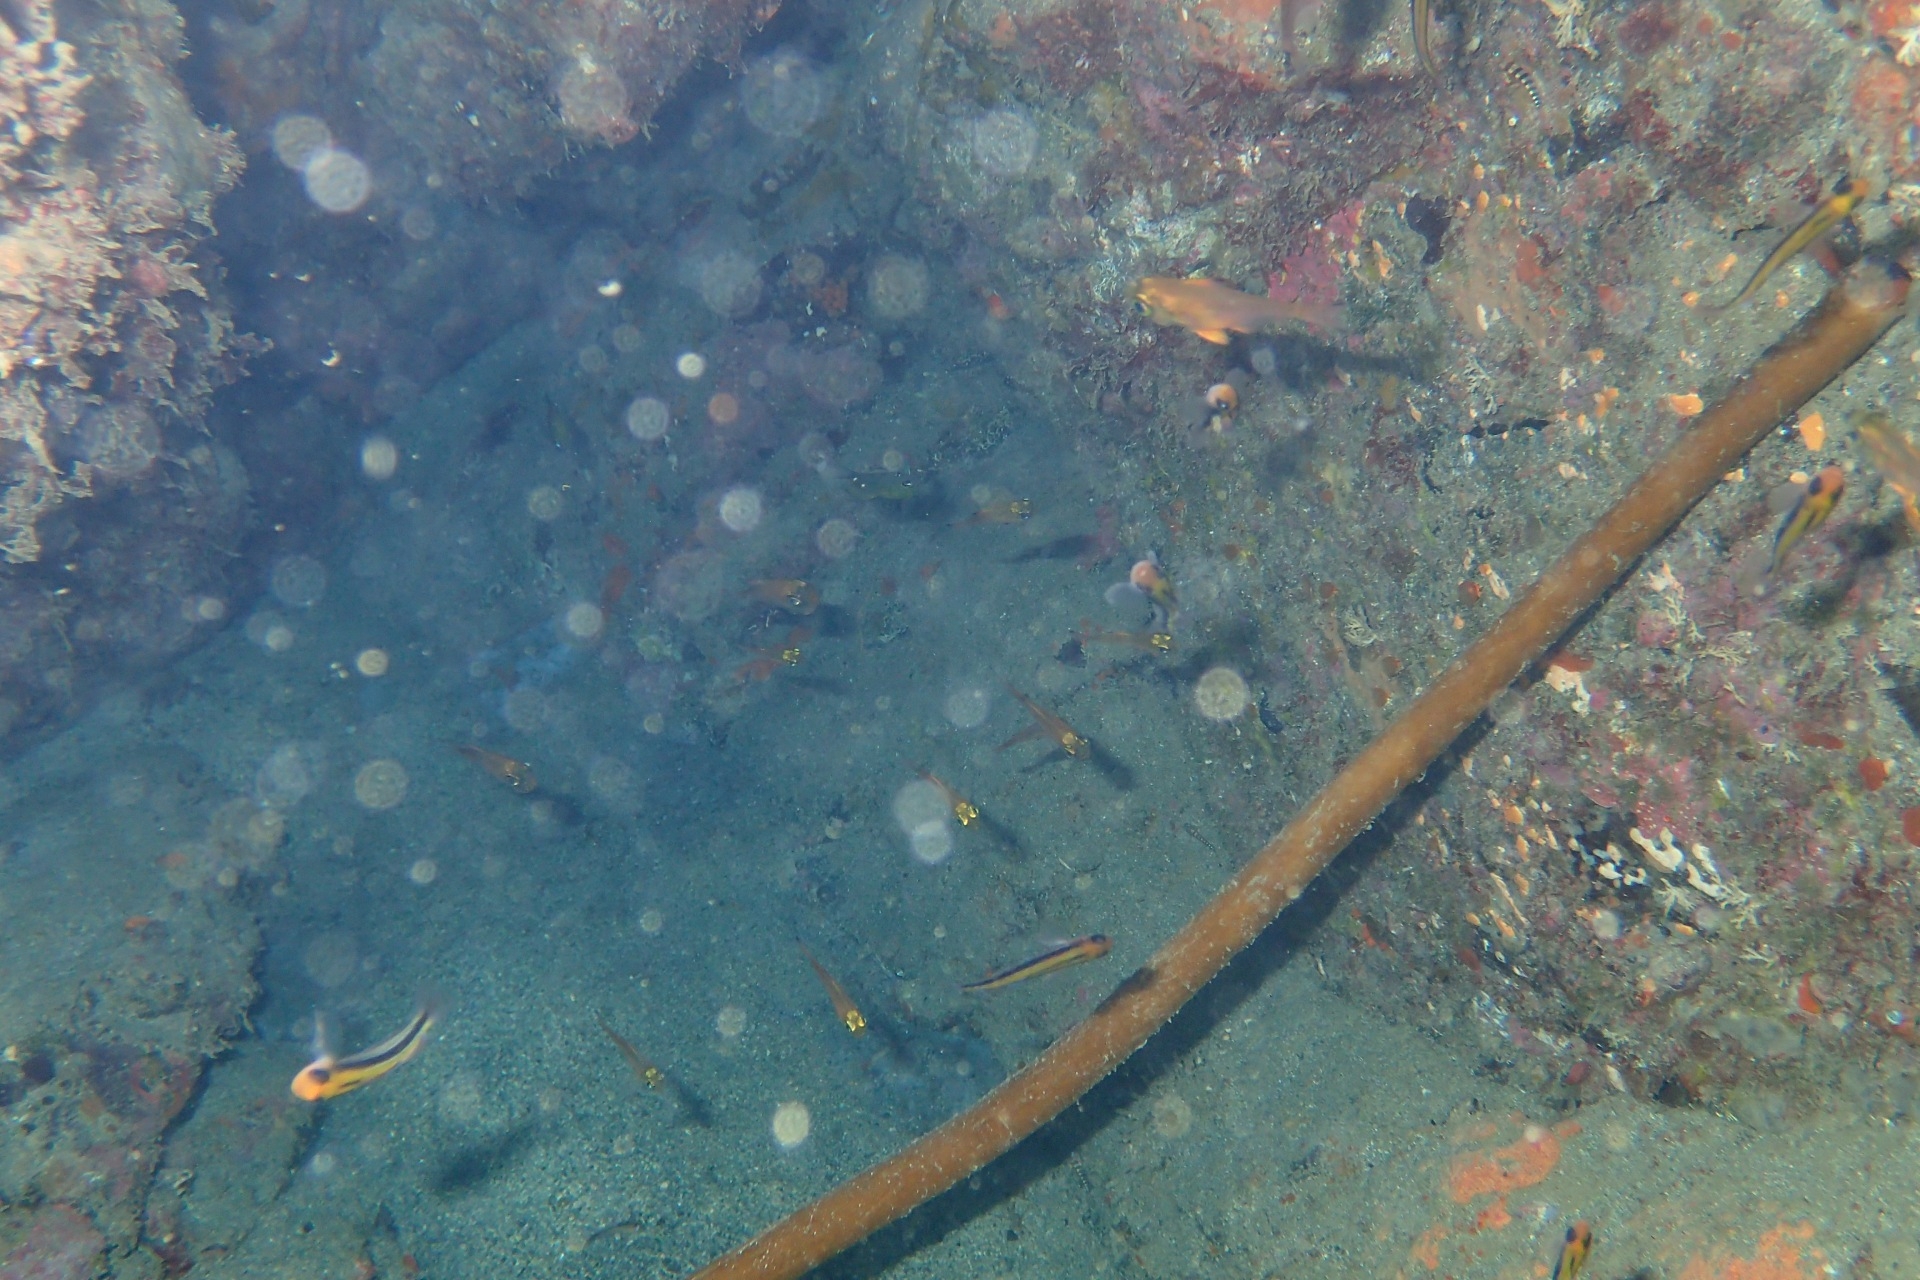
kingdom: Animalia
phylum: Chordata
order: Perciformes
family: Pempheridae
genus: Pempheris
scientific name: Pempheris adspersa
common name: Bigeye
